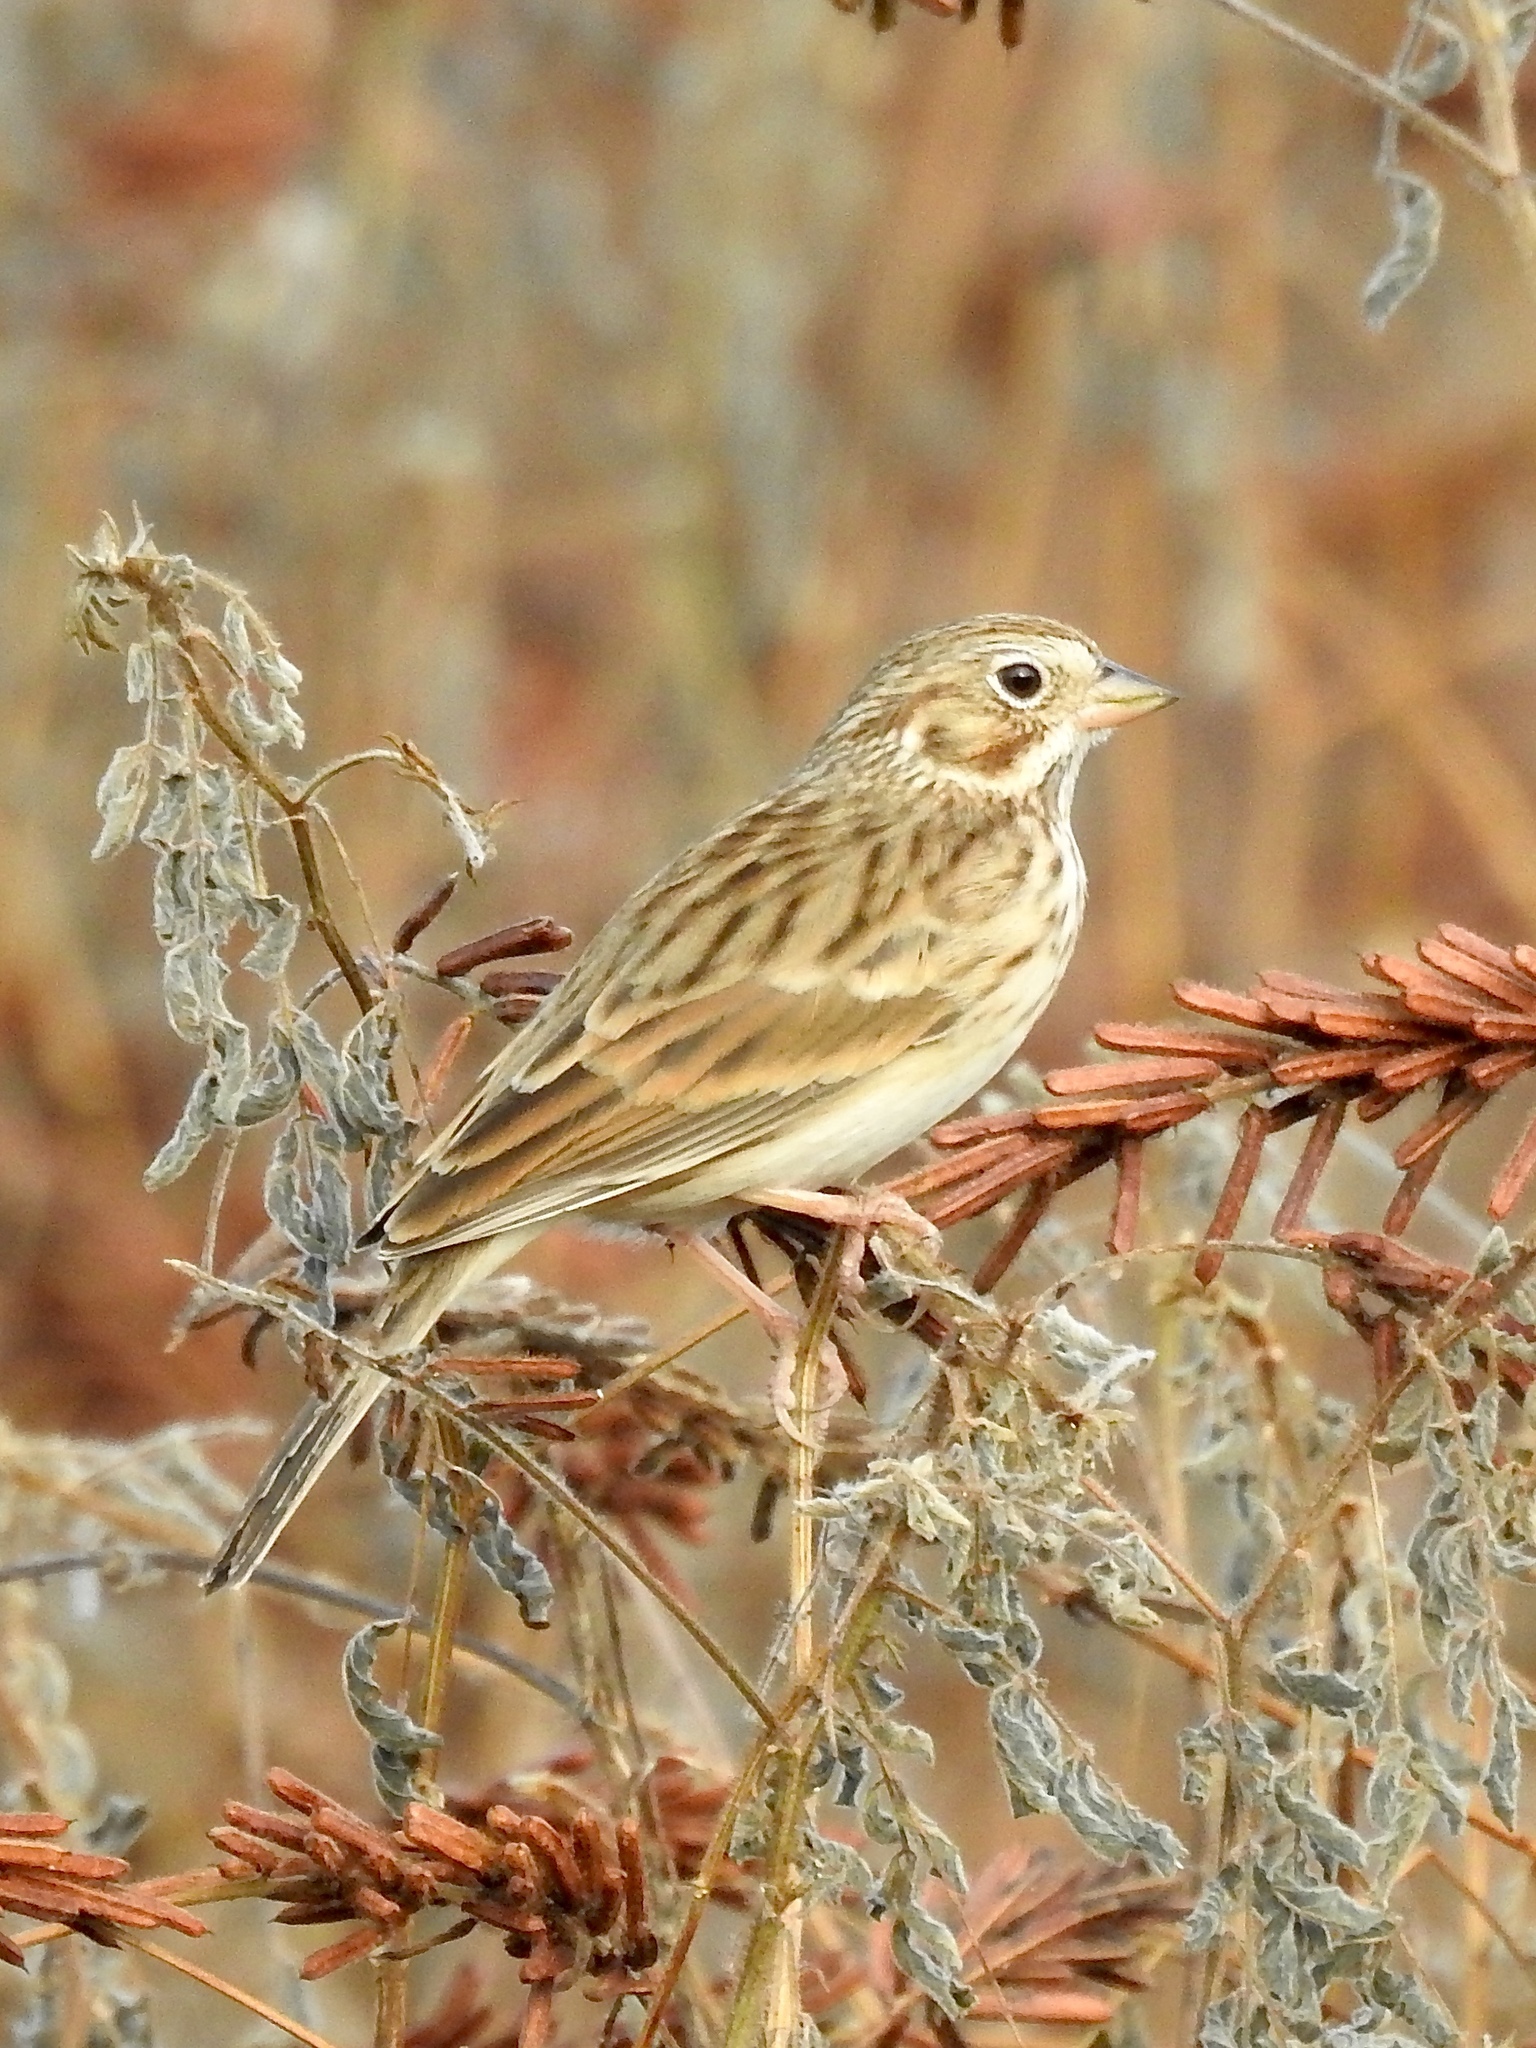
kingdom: Animalia
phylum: Chordata
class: Aves
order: Passeriformes
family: Passerellidae
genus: Pooecetes
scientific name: Pooecetes gramineus
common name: Vesper sparrow
